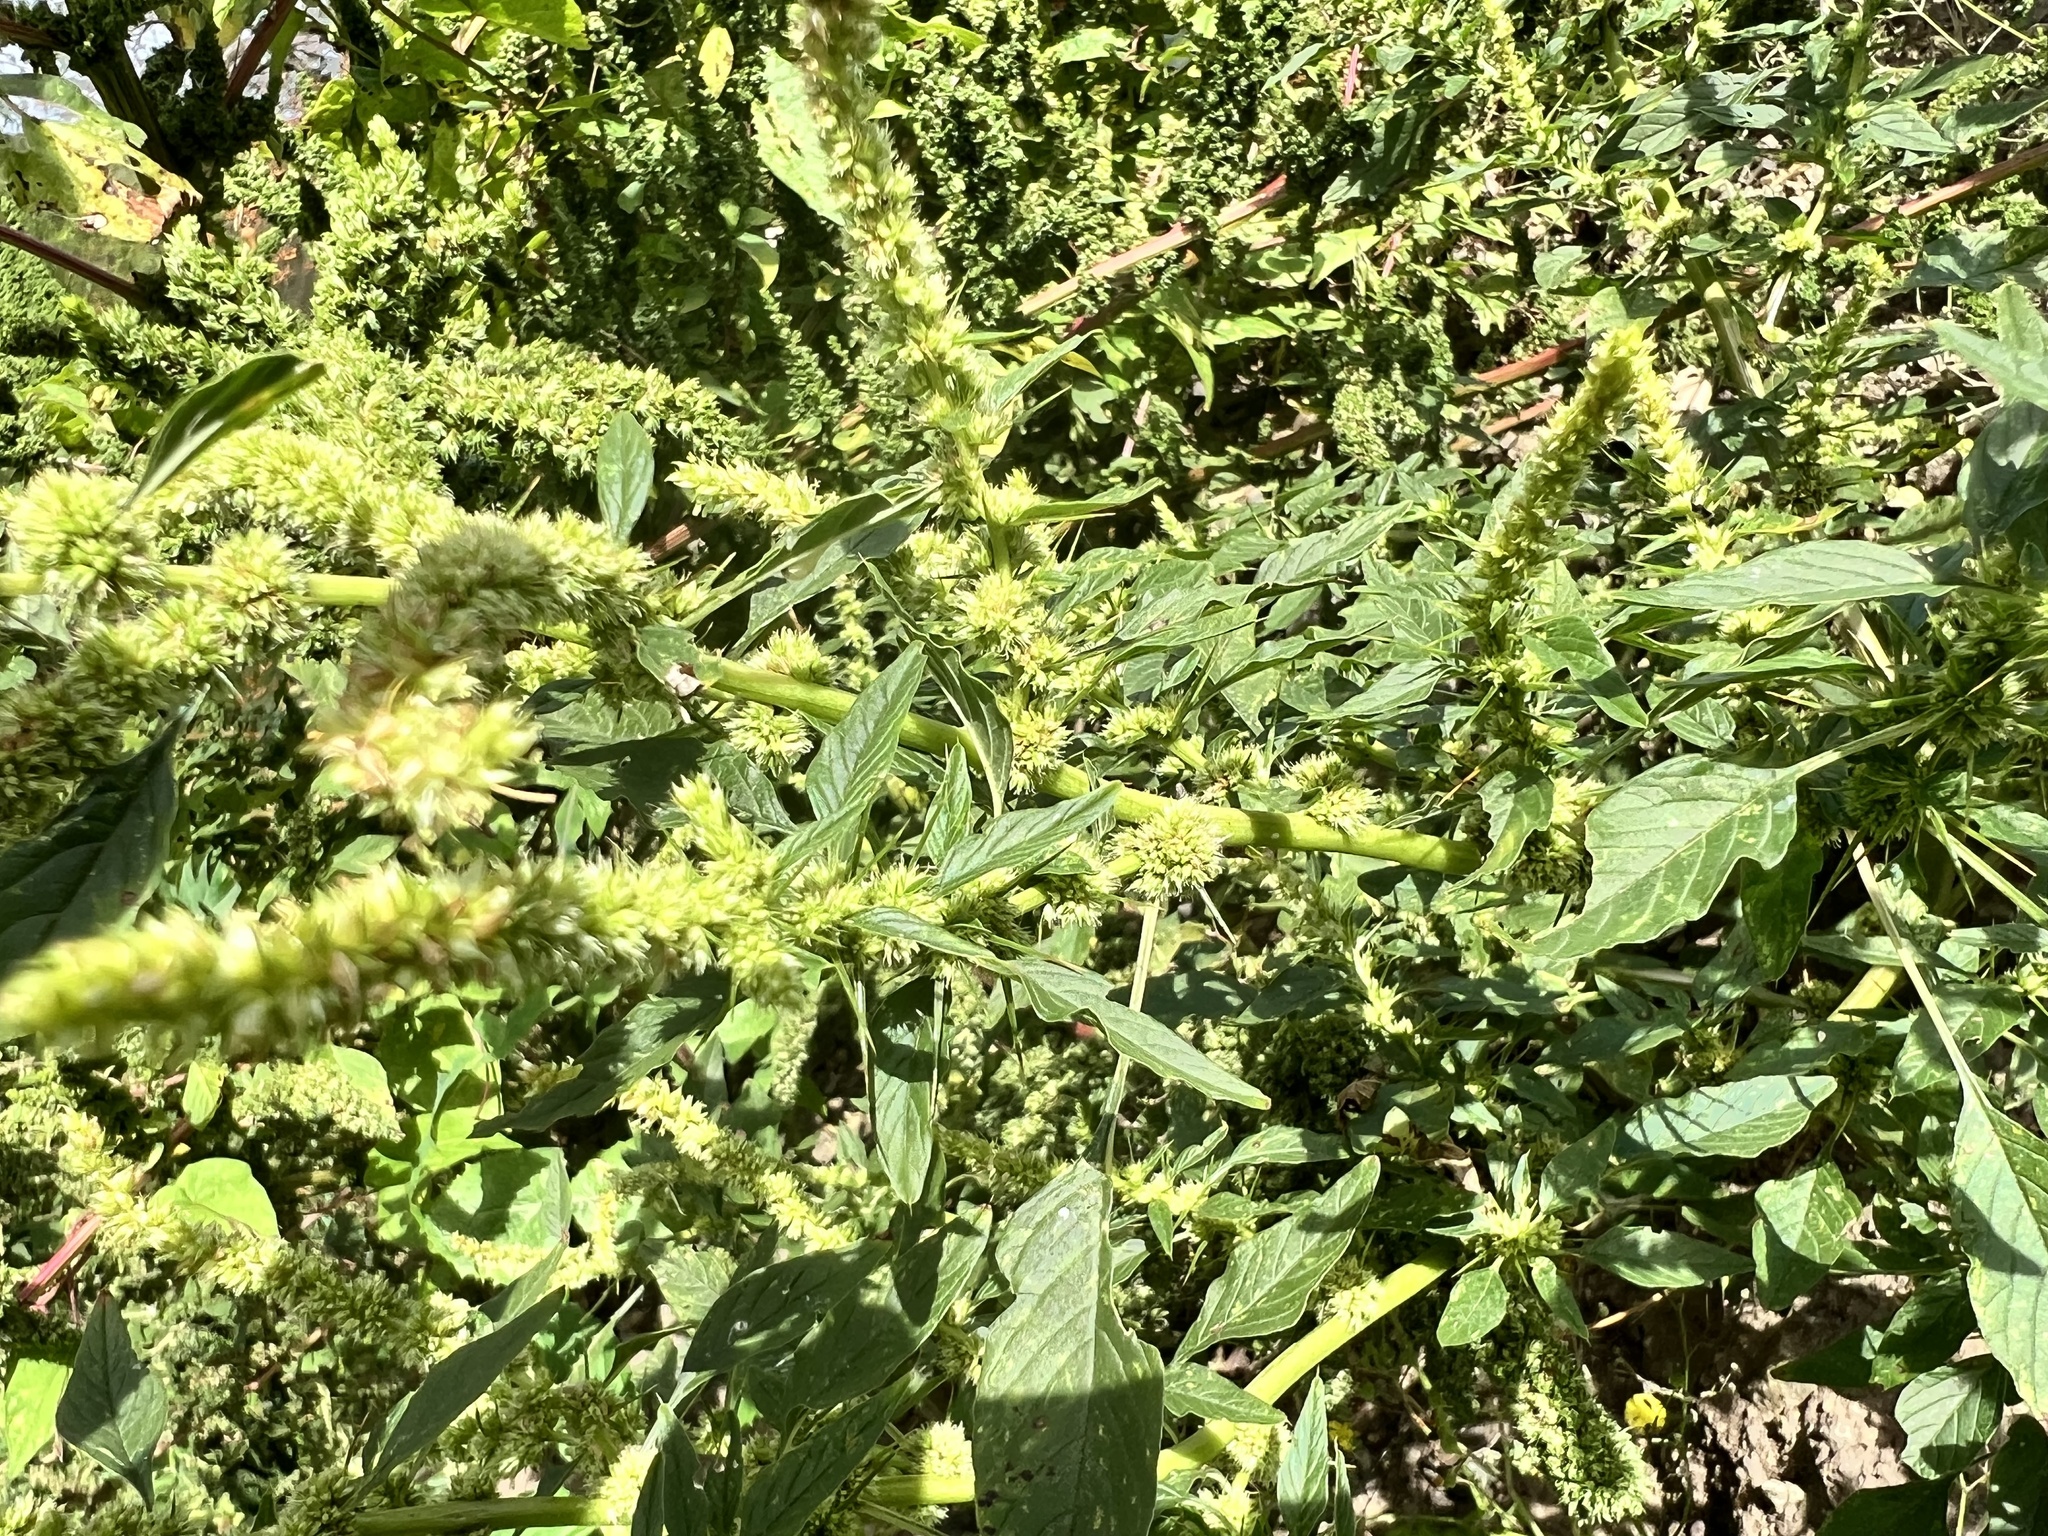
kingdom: Plantae
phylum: Tracheophyta
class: Magnoliopsida
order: Caryophyllales
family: Amaranthaceae
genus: Amaranthus
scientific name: Amaranthus spinosus
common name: Spiny amaranth
